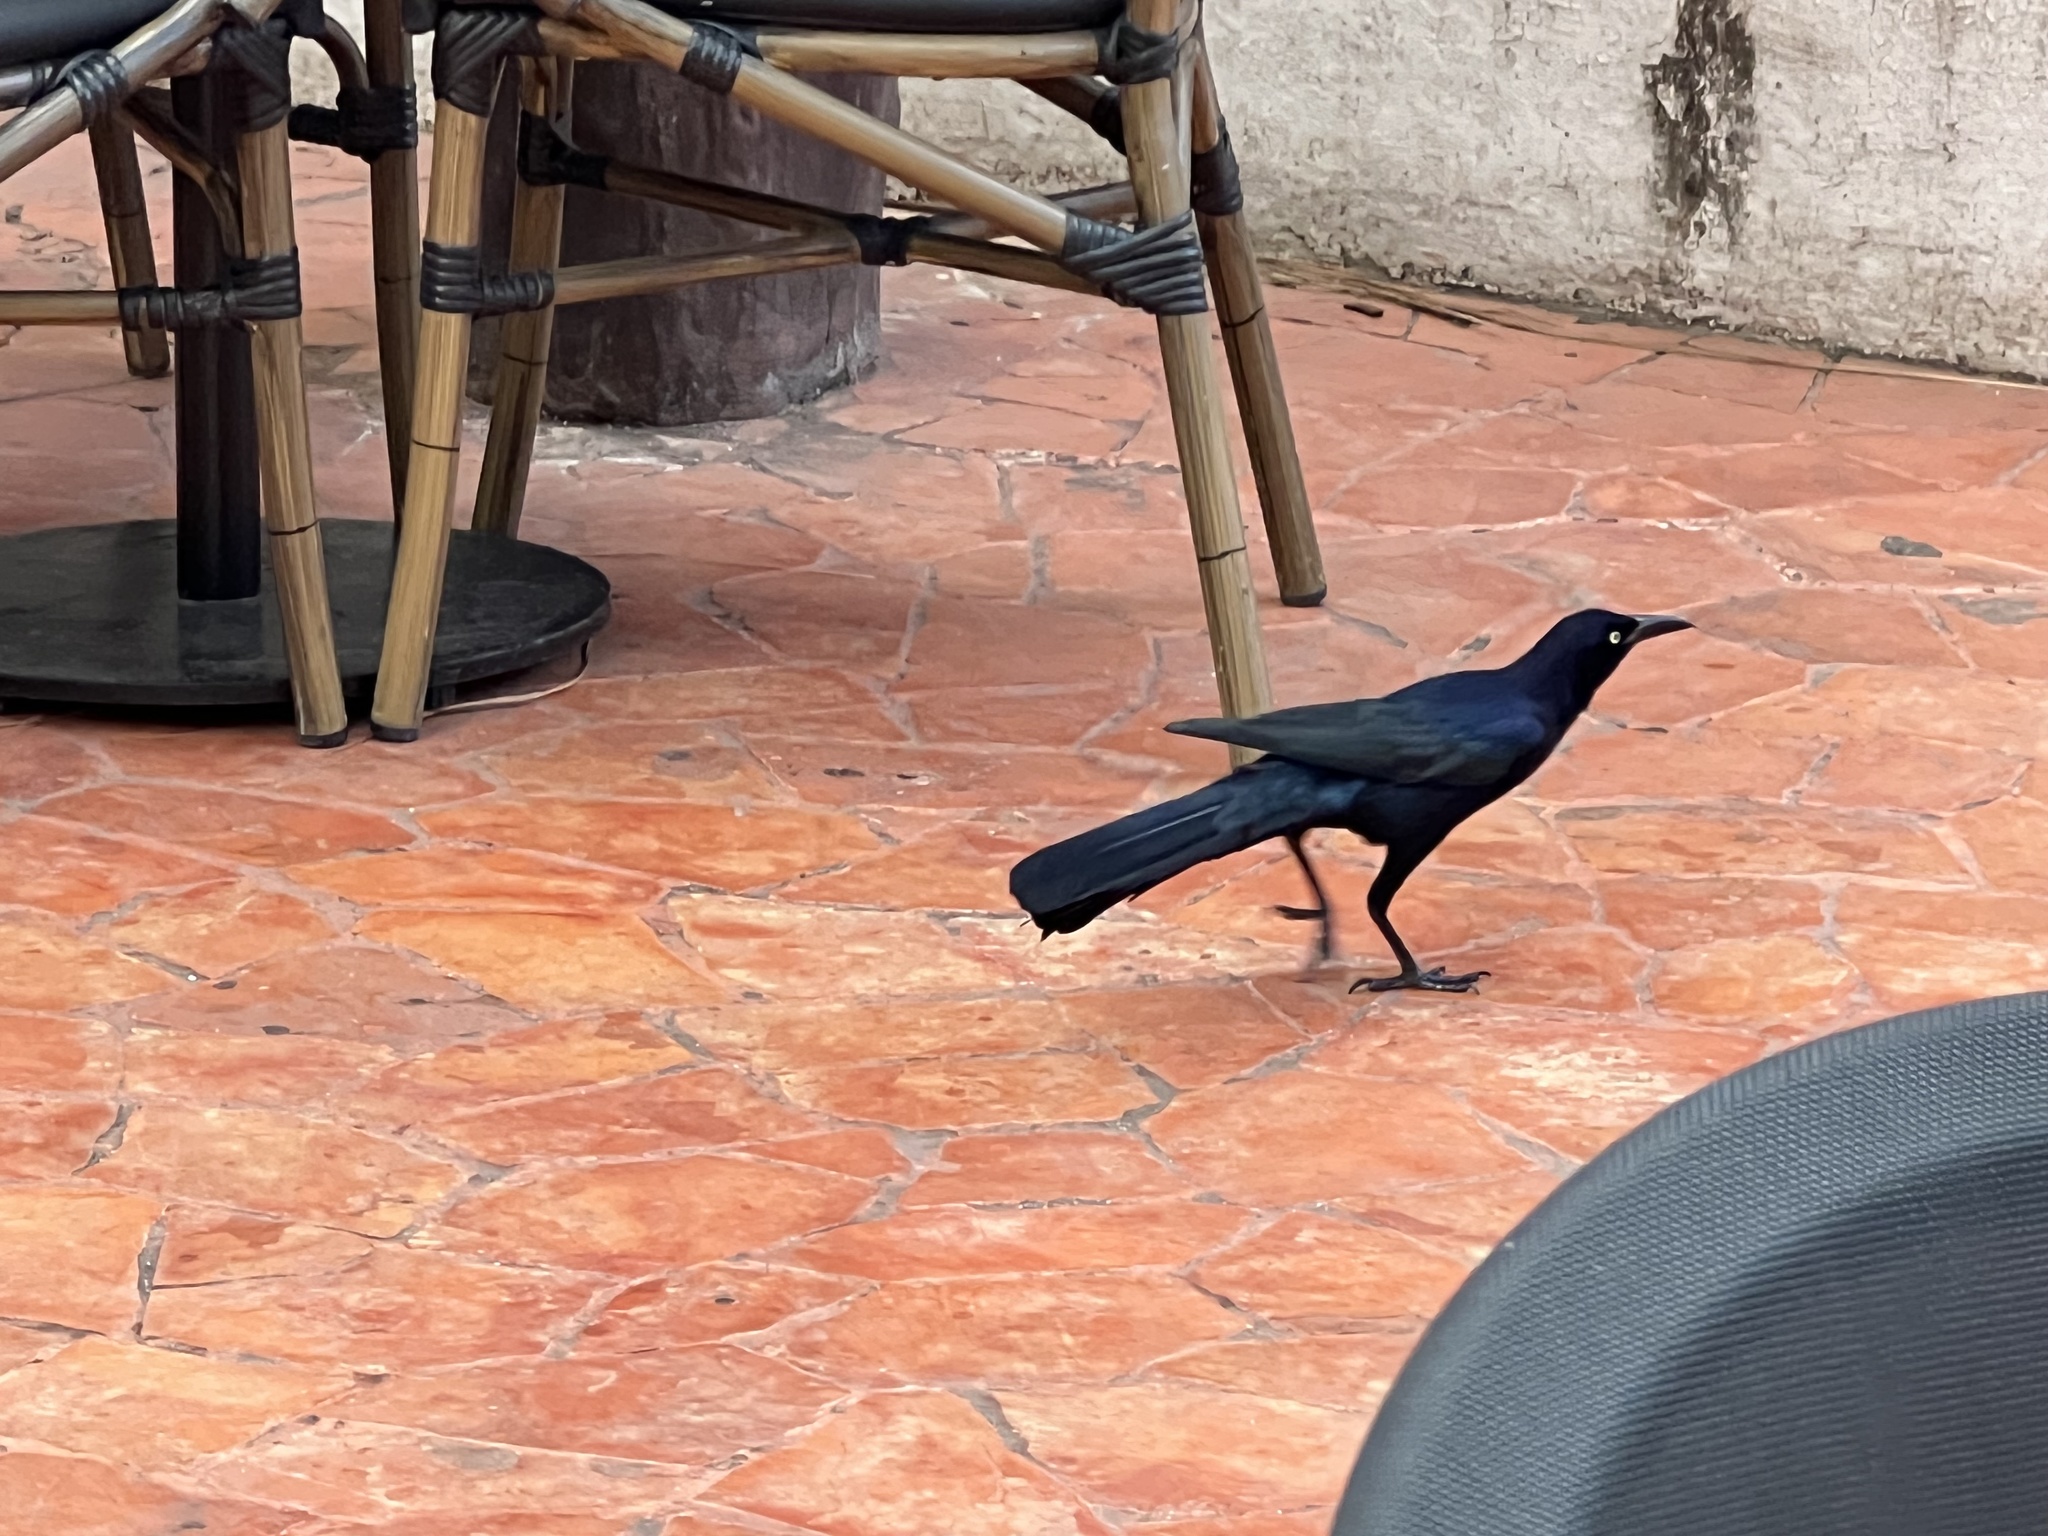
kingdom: Animalia
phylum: Chordata
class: Aves
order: Passeriformes
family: Icteridae
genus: Quiscalus
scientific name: Quiscalus mexicanus
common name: Great-tailed grackle
